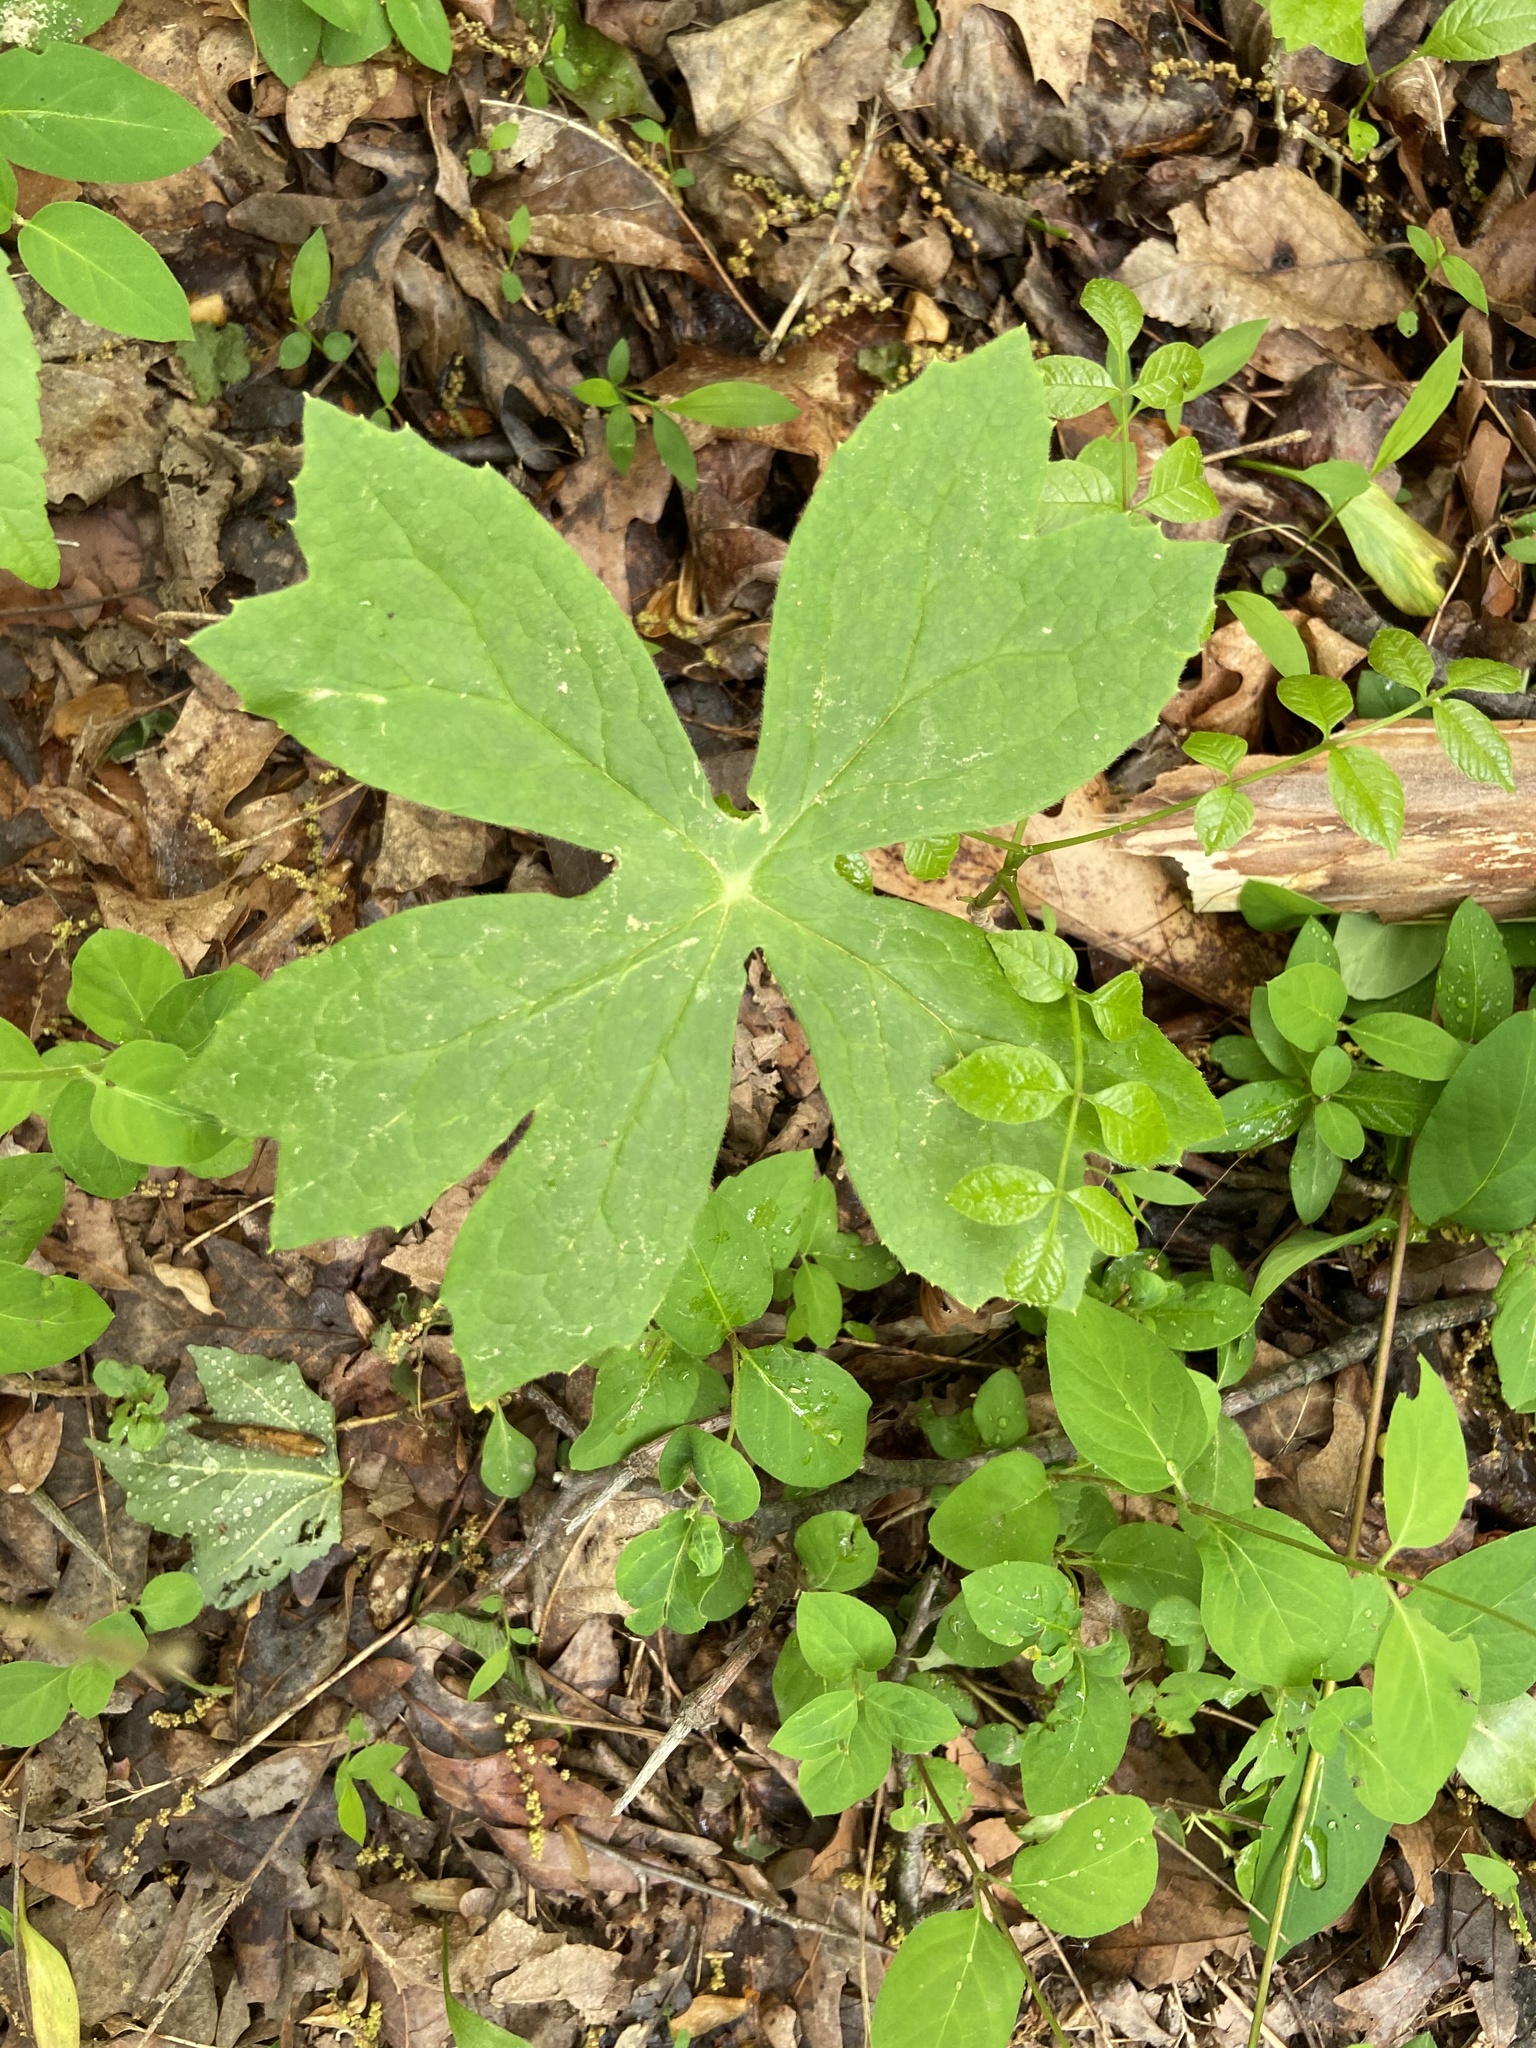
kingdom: Plantae
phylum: Tracheophyta
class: Magnoliopsida
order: Ranunculales
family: Berberidaceae
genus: Podophyllum
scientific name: Podophyllum peltatum
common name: Wild mandrake
